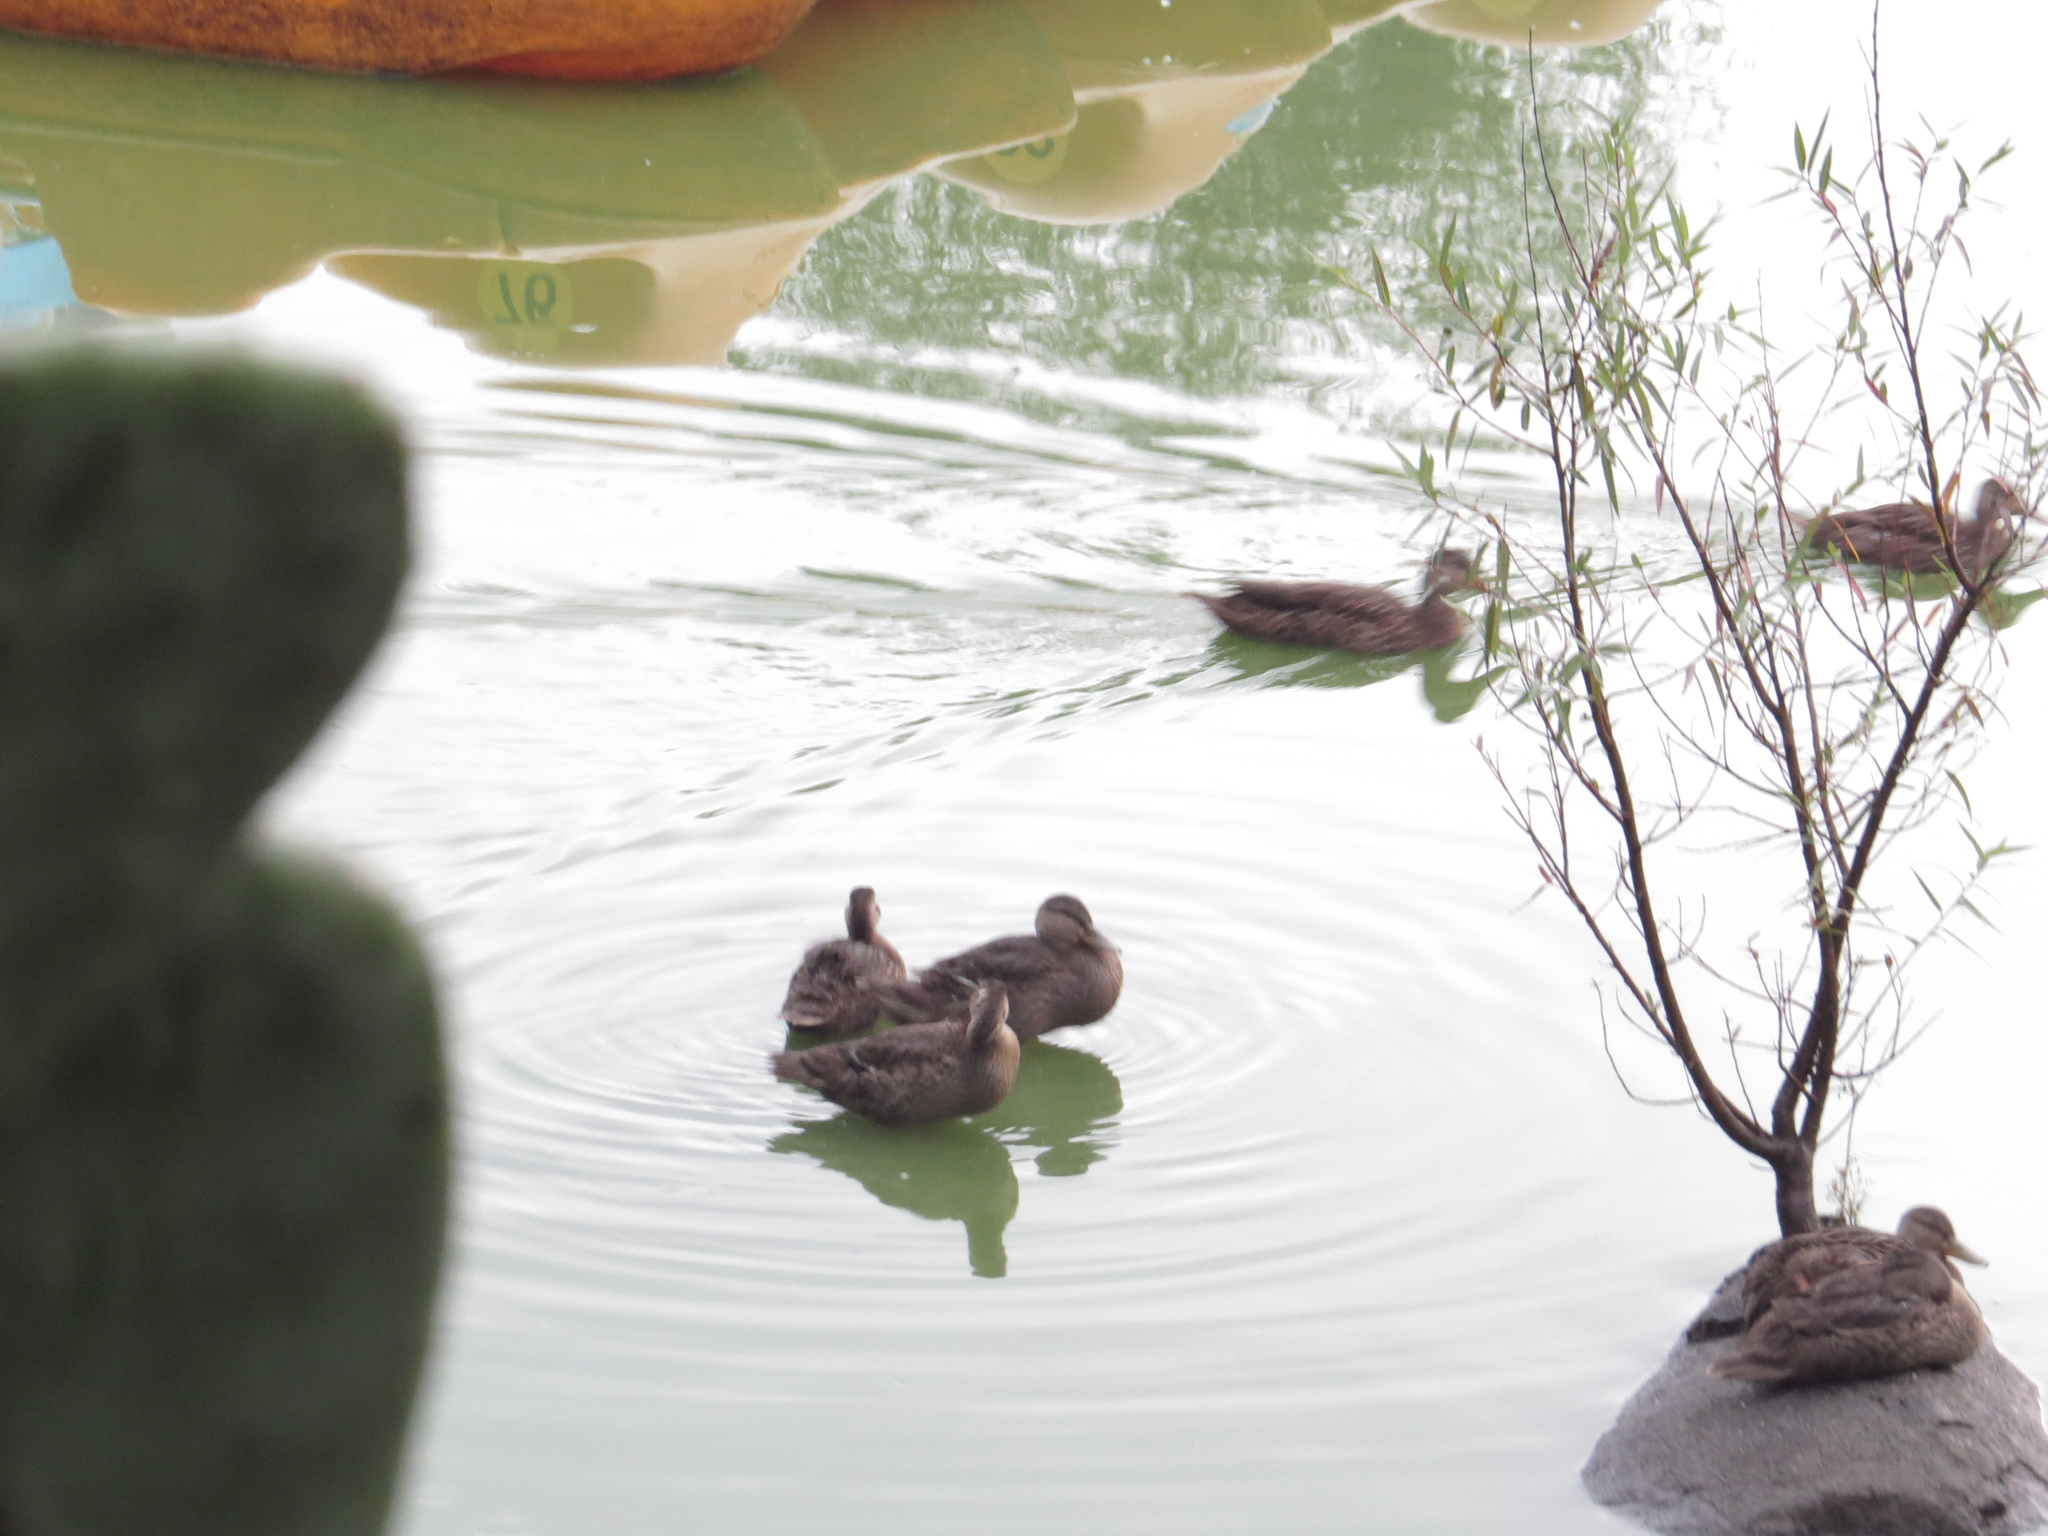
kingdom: Animalia
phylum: Chordata
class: Aves
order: Anseriformes
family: Anatidae
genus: Anas
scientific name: Anas diazi
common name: Mexican duck
